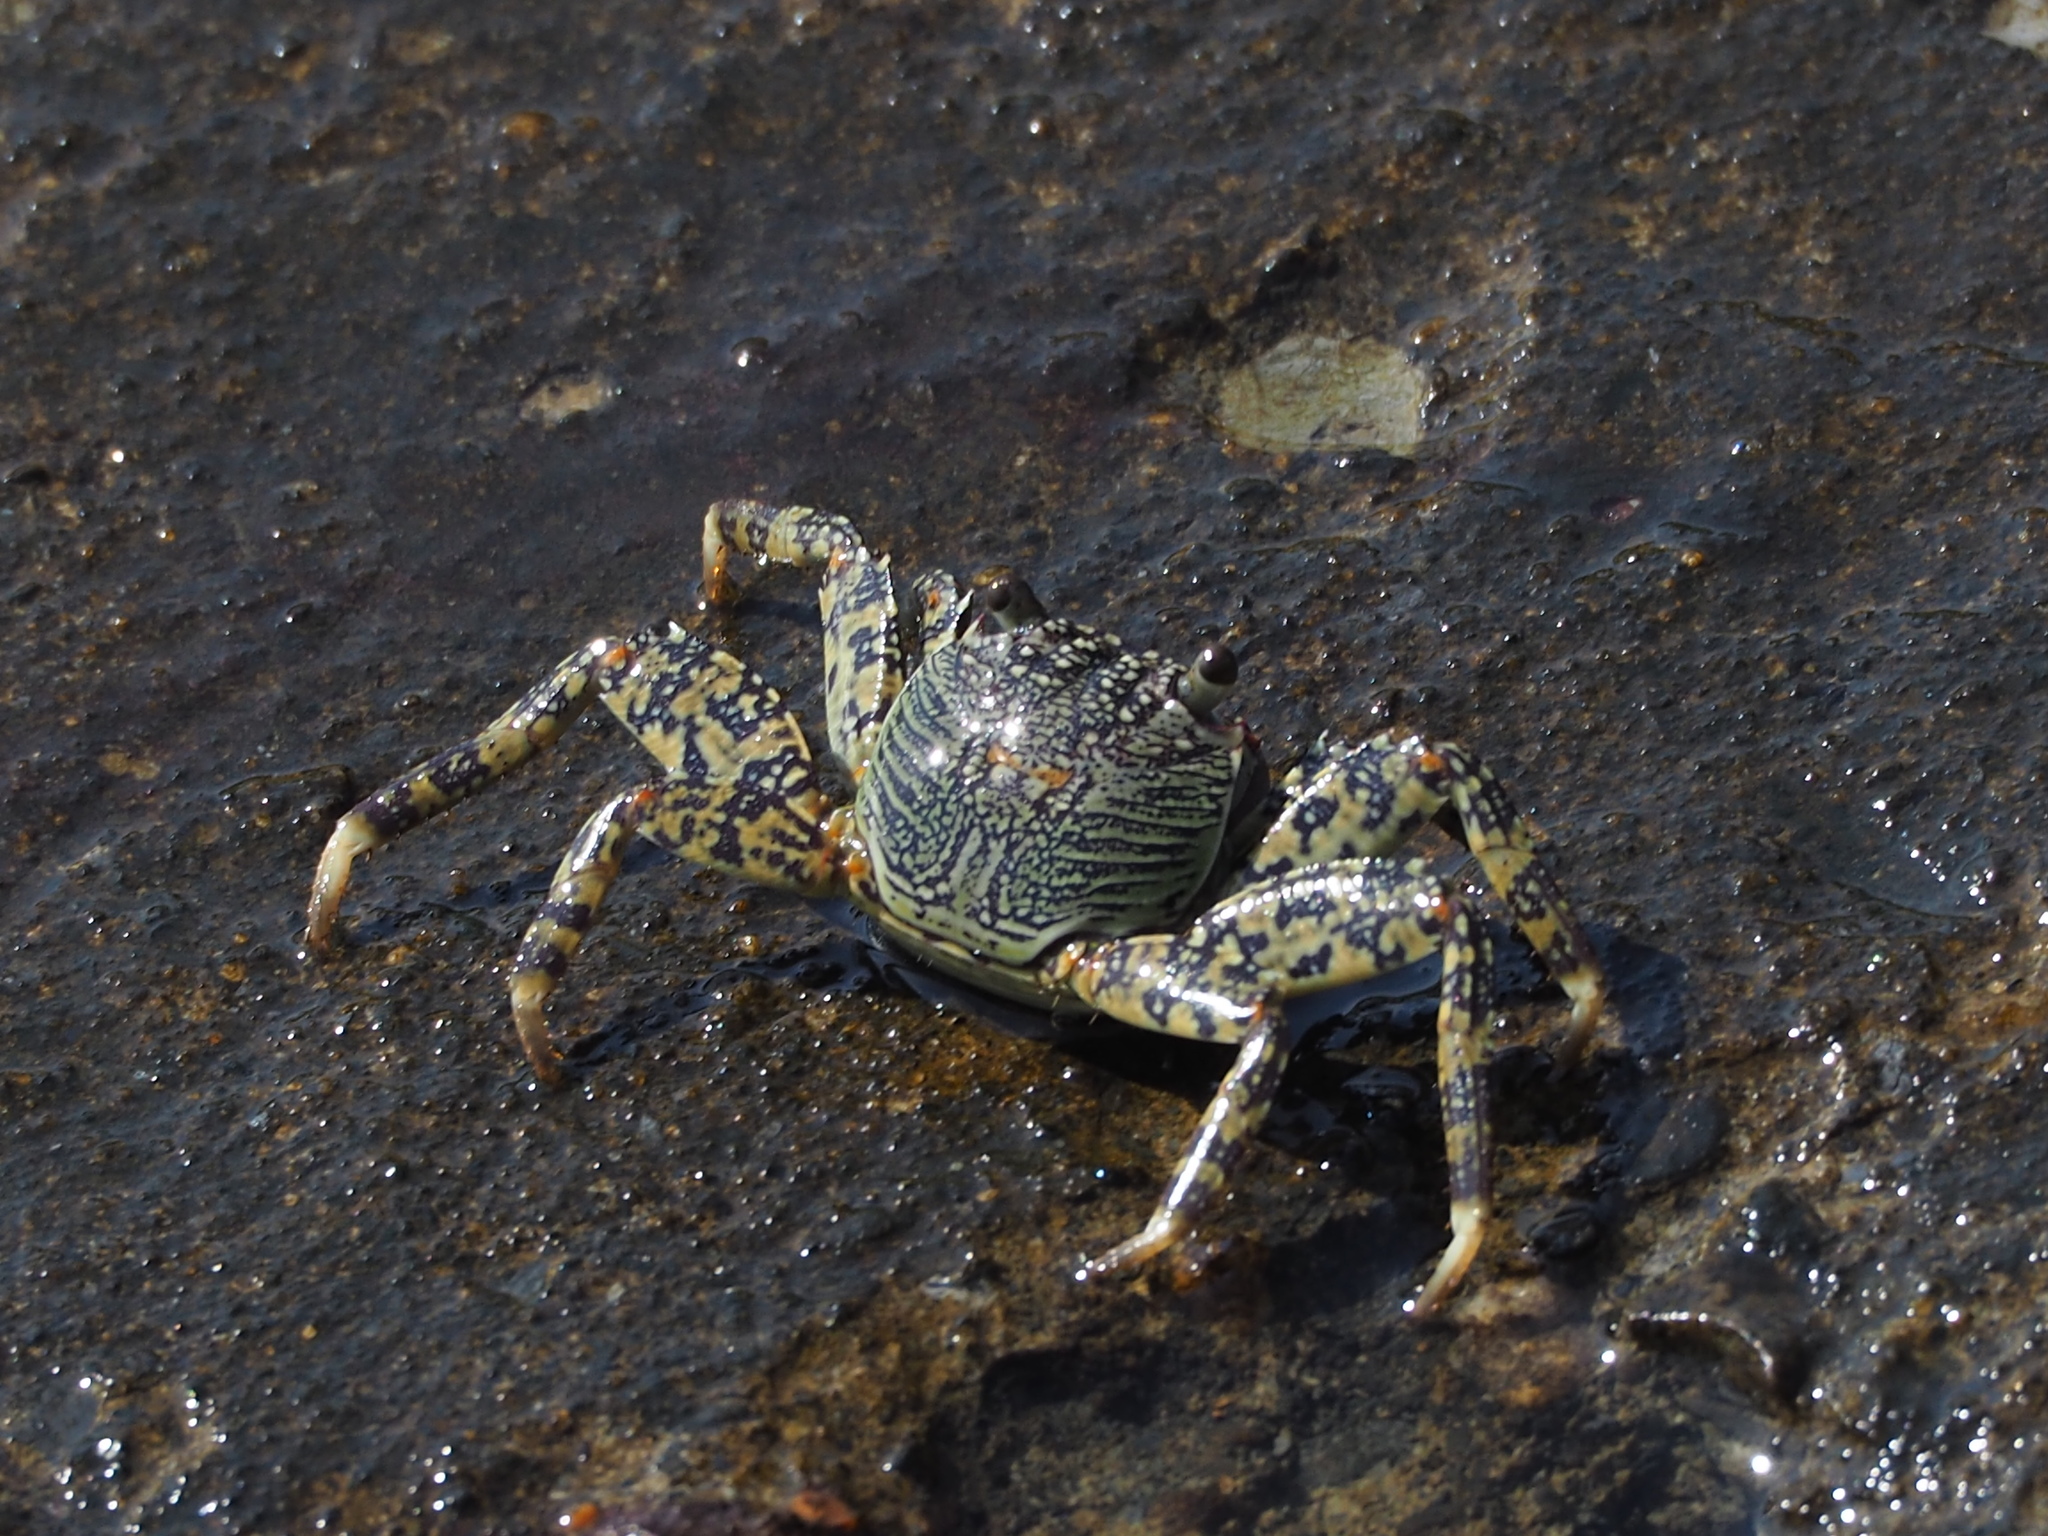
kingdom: Animalia
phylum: Arthropoda
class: Malacostraca
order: Decapoda
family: Grapsidae
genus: Grapsus
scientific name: Grapsus albolineatus
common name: Mottled lightfoot crab
